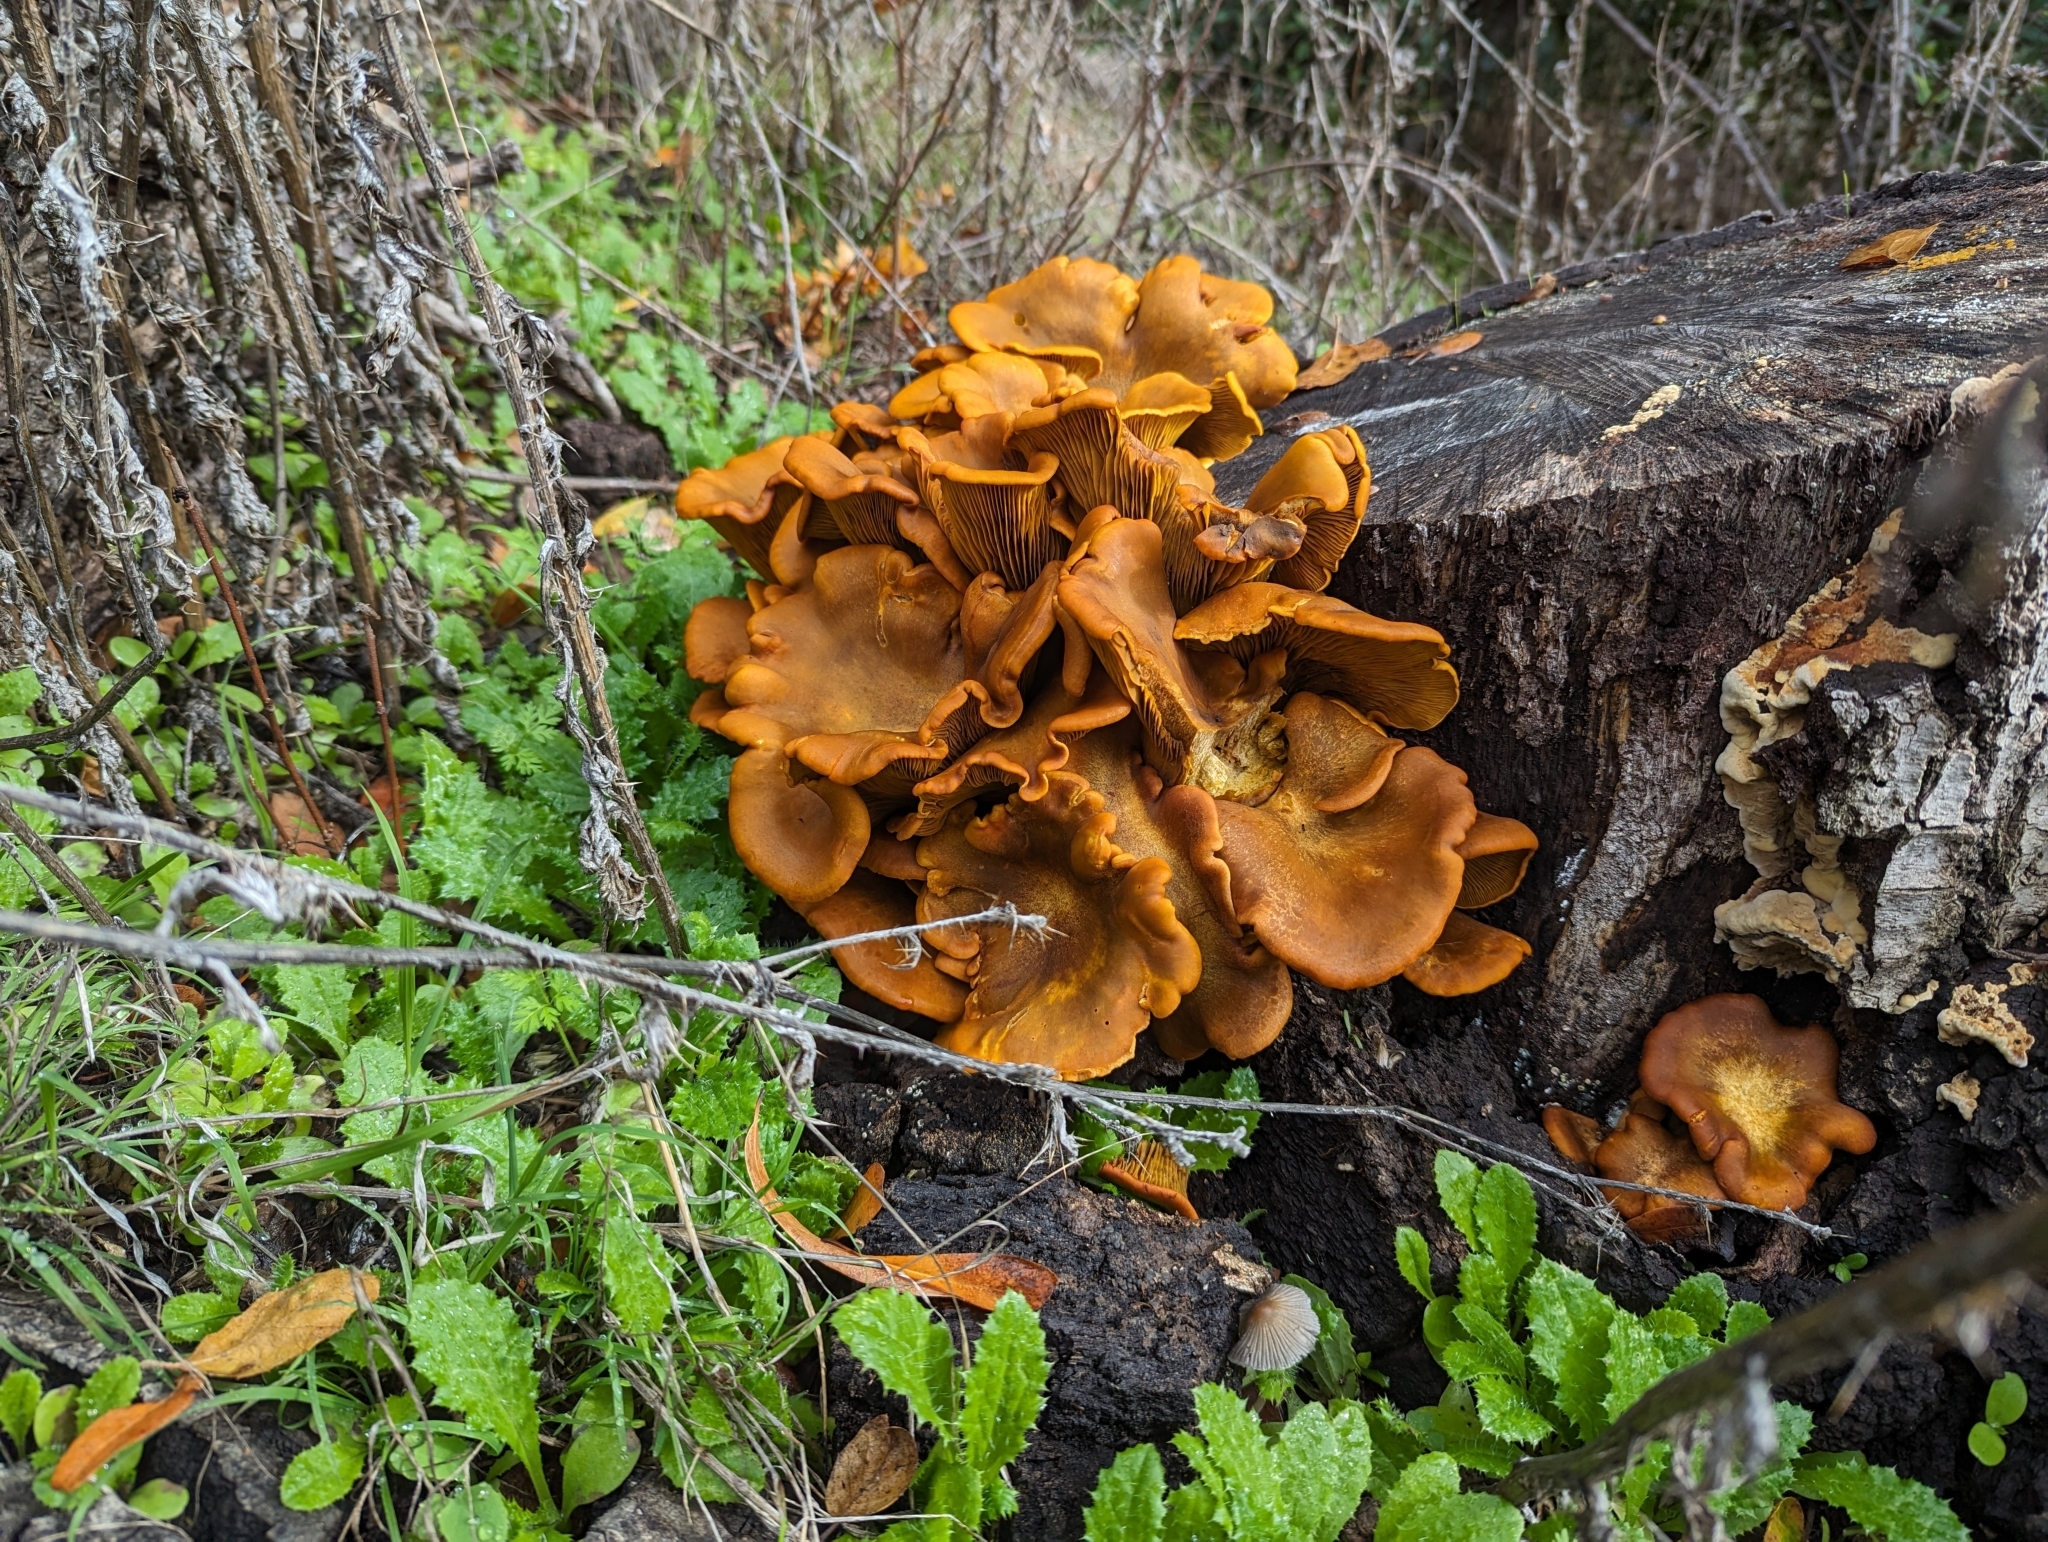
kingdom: Fungi
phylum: Basidiomycota
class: Agaricomycetes
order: Agaricales
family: Omphalotaceae
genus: Omphalotus
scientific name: Omphalotus olivascens
